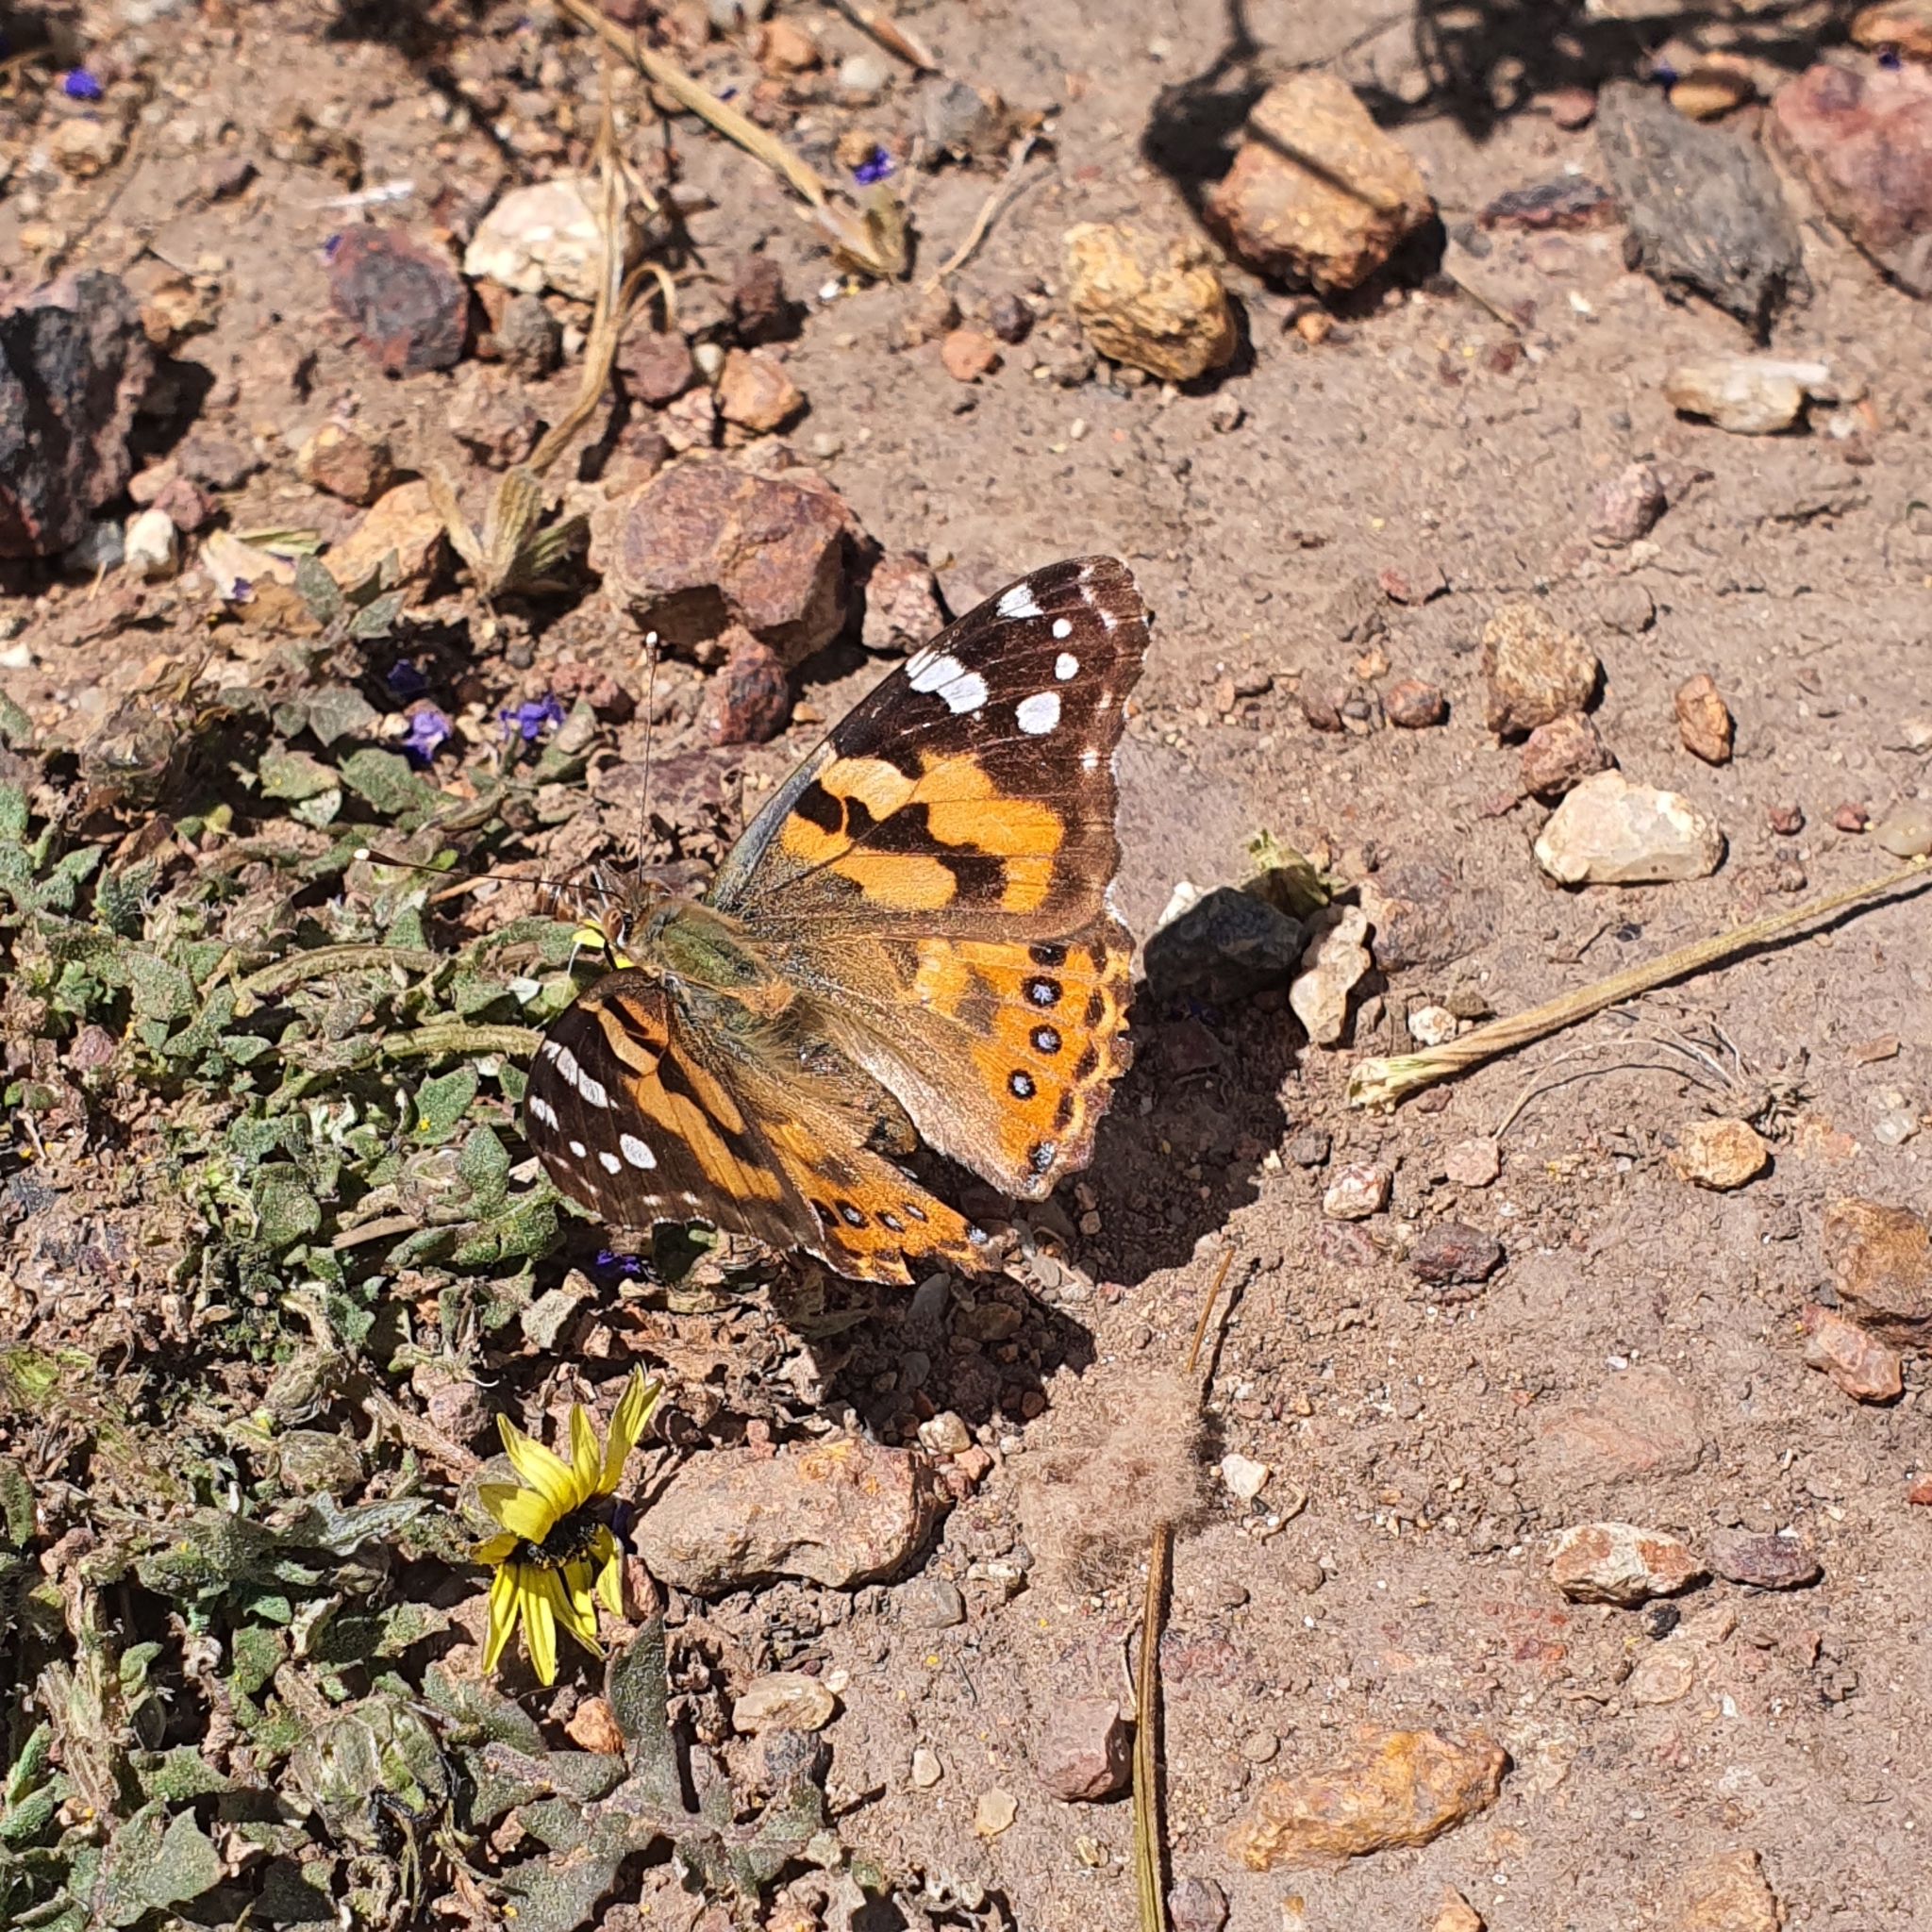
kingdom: Animalia
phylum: Arthropoda
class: Insecta
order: Lepidoptera
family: Nymphalidae
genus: Vanessa
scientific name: Vanessa kershawi
